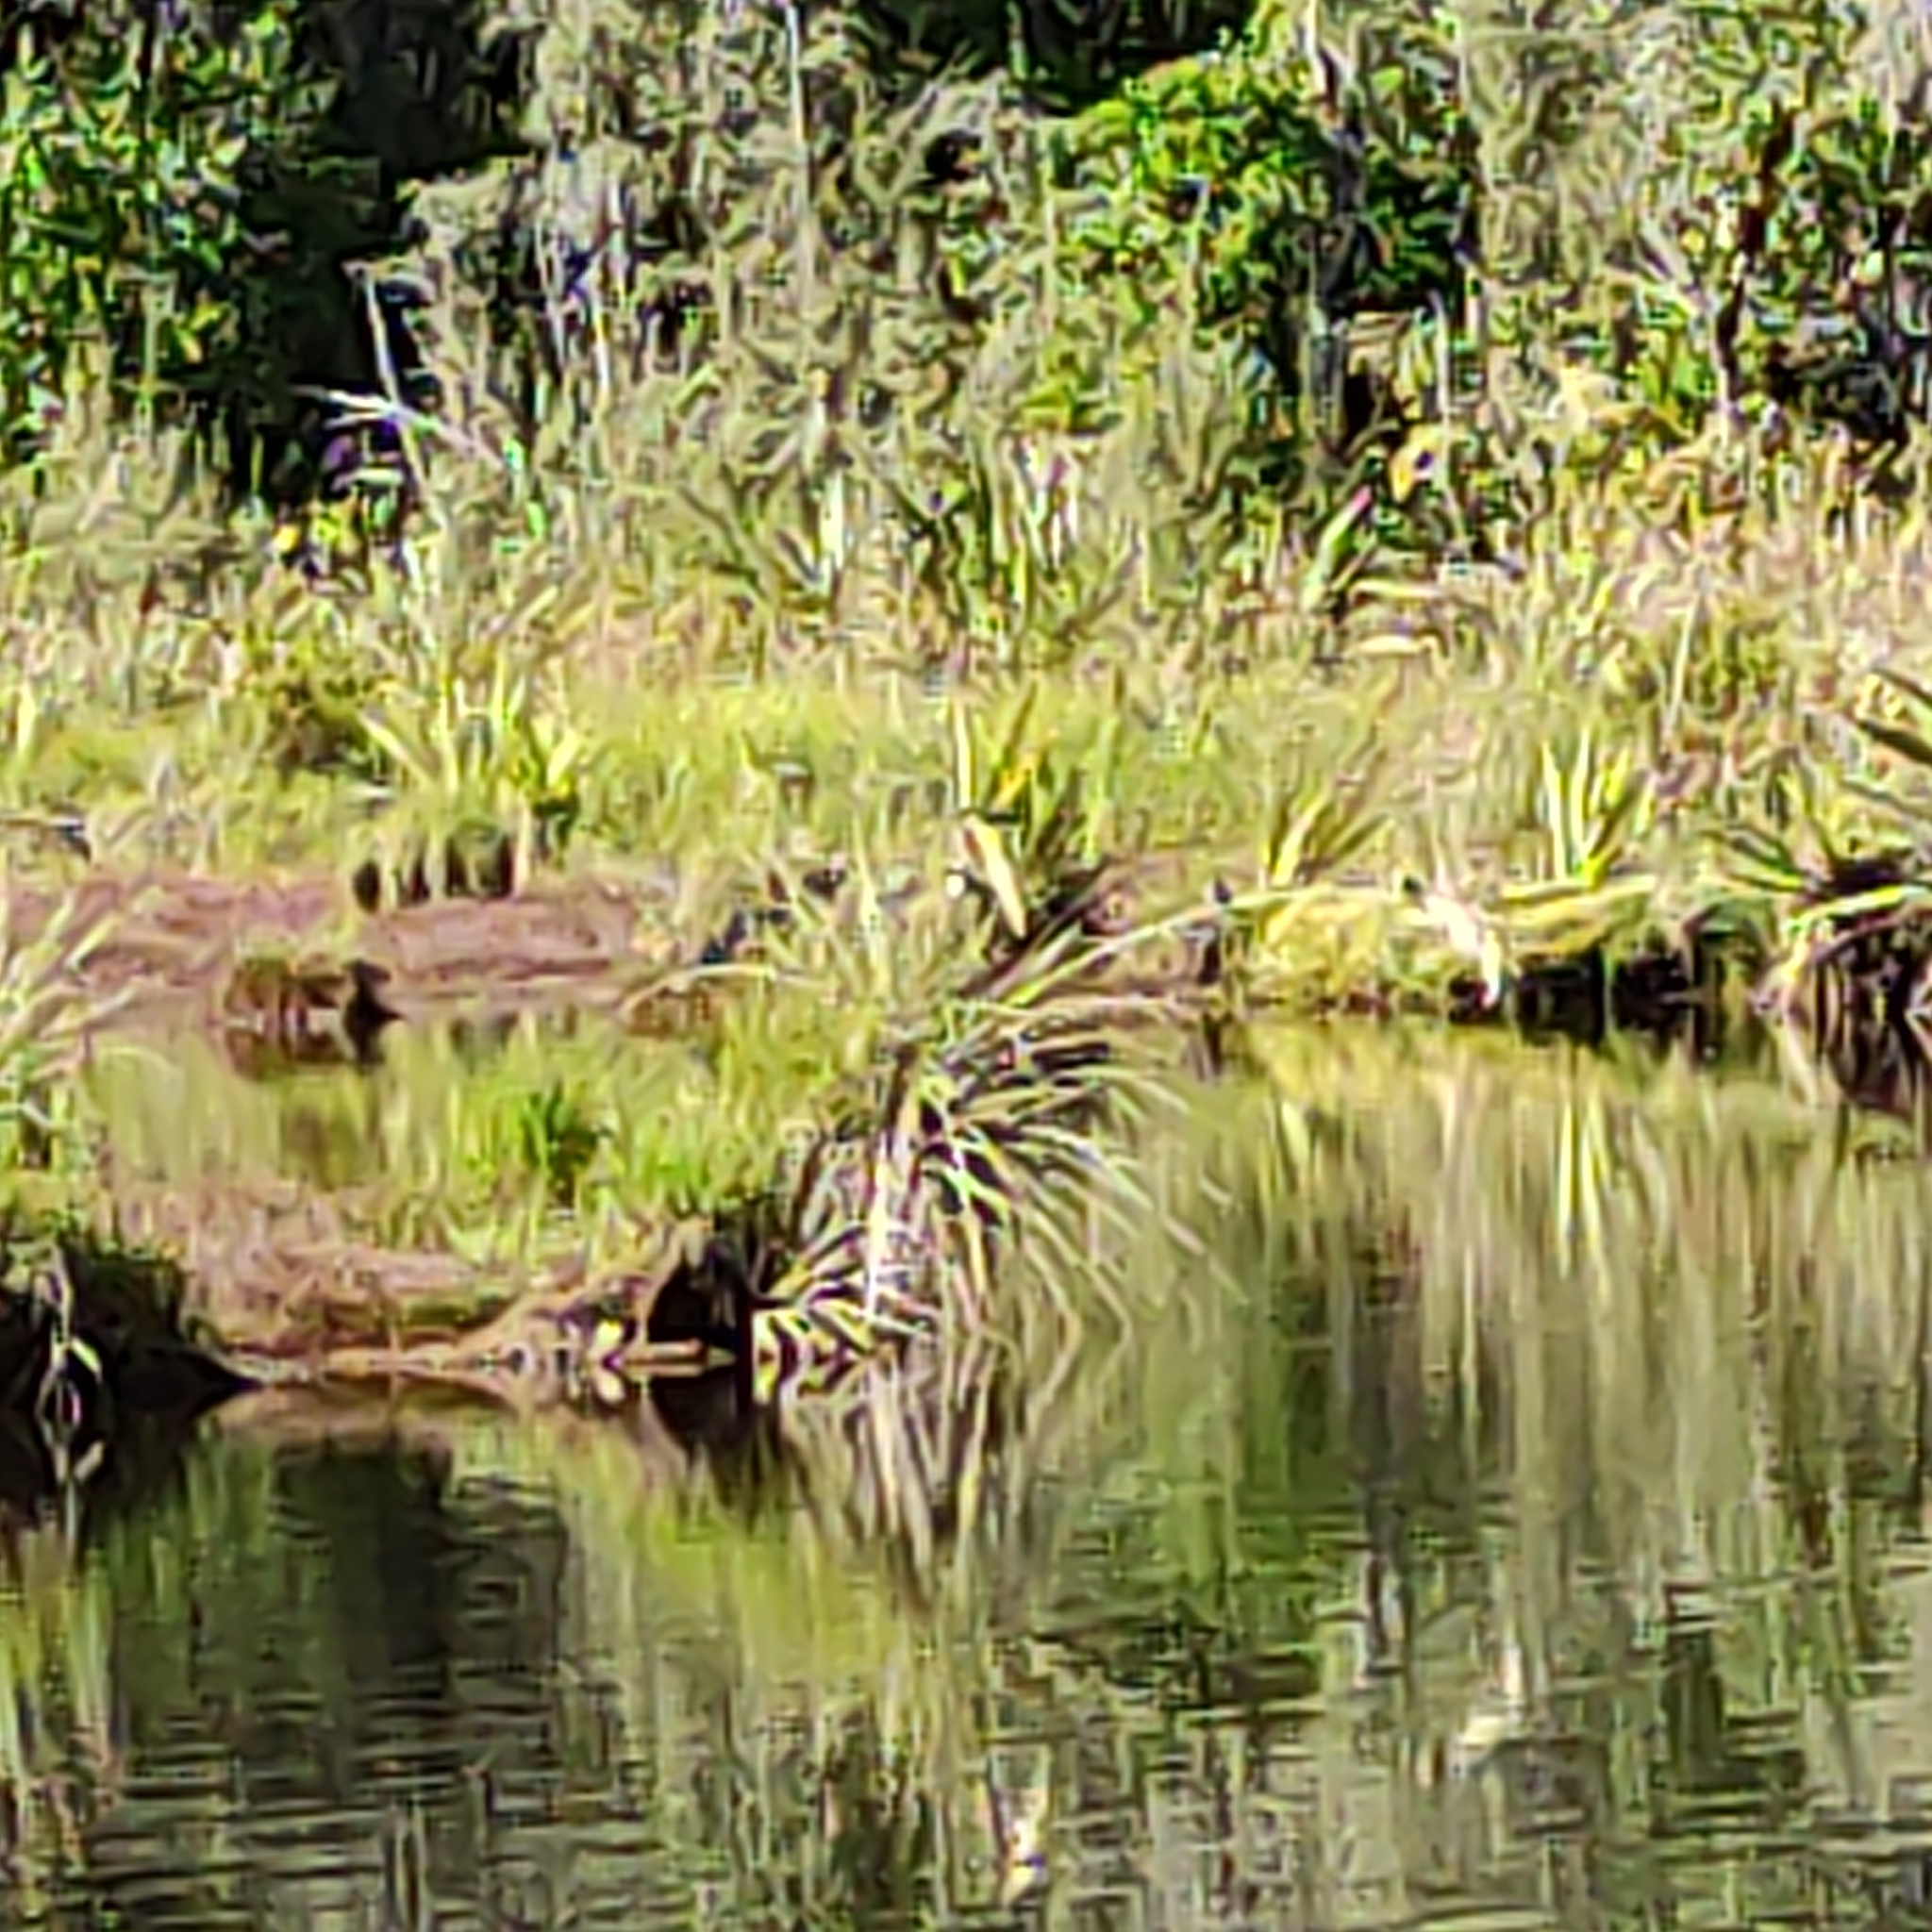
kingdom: Animalia
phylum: Chordata
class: Aves
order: Passeriformes
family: Hirundinidae
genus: Hirundo
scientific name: Hirundo neoxena
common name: Welcome swallow
